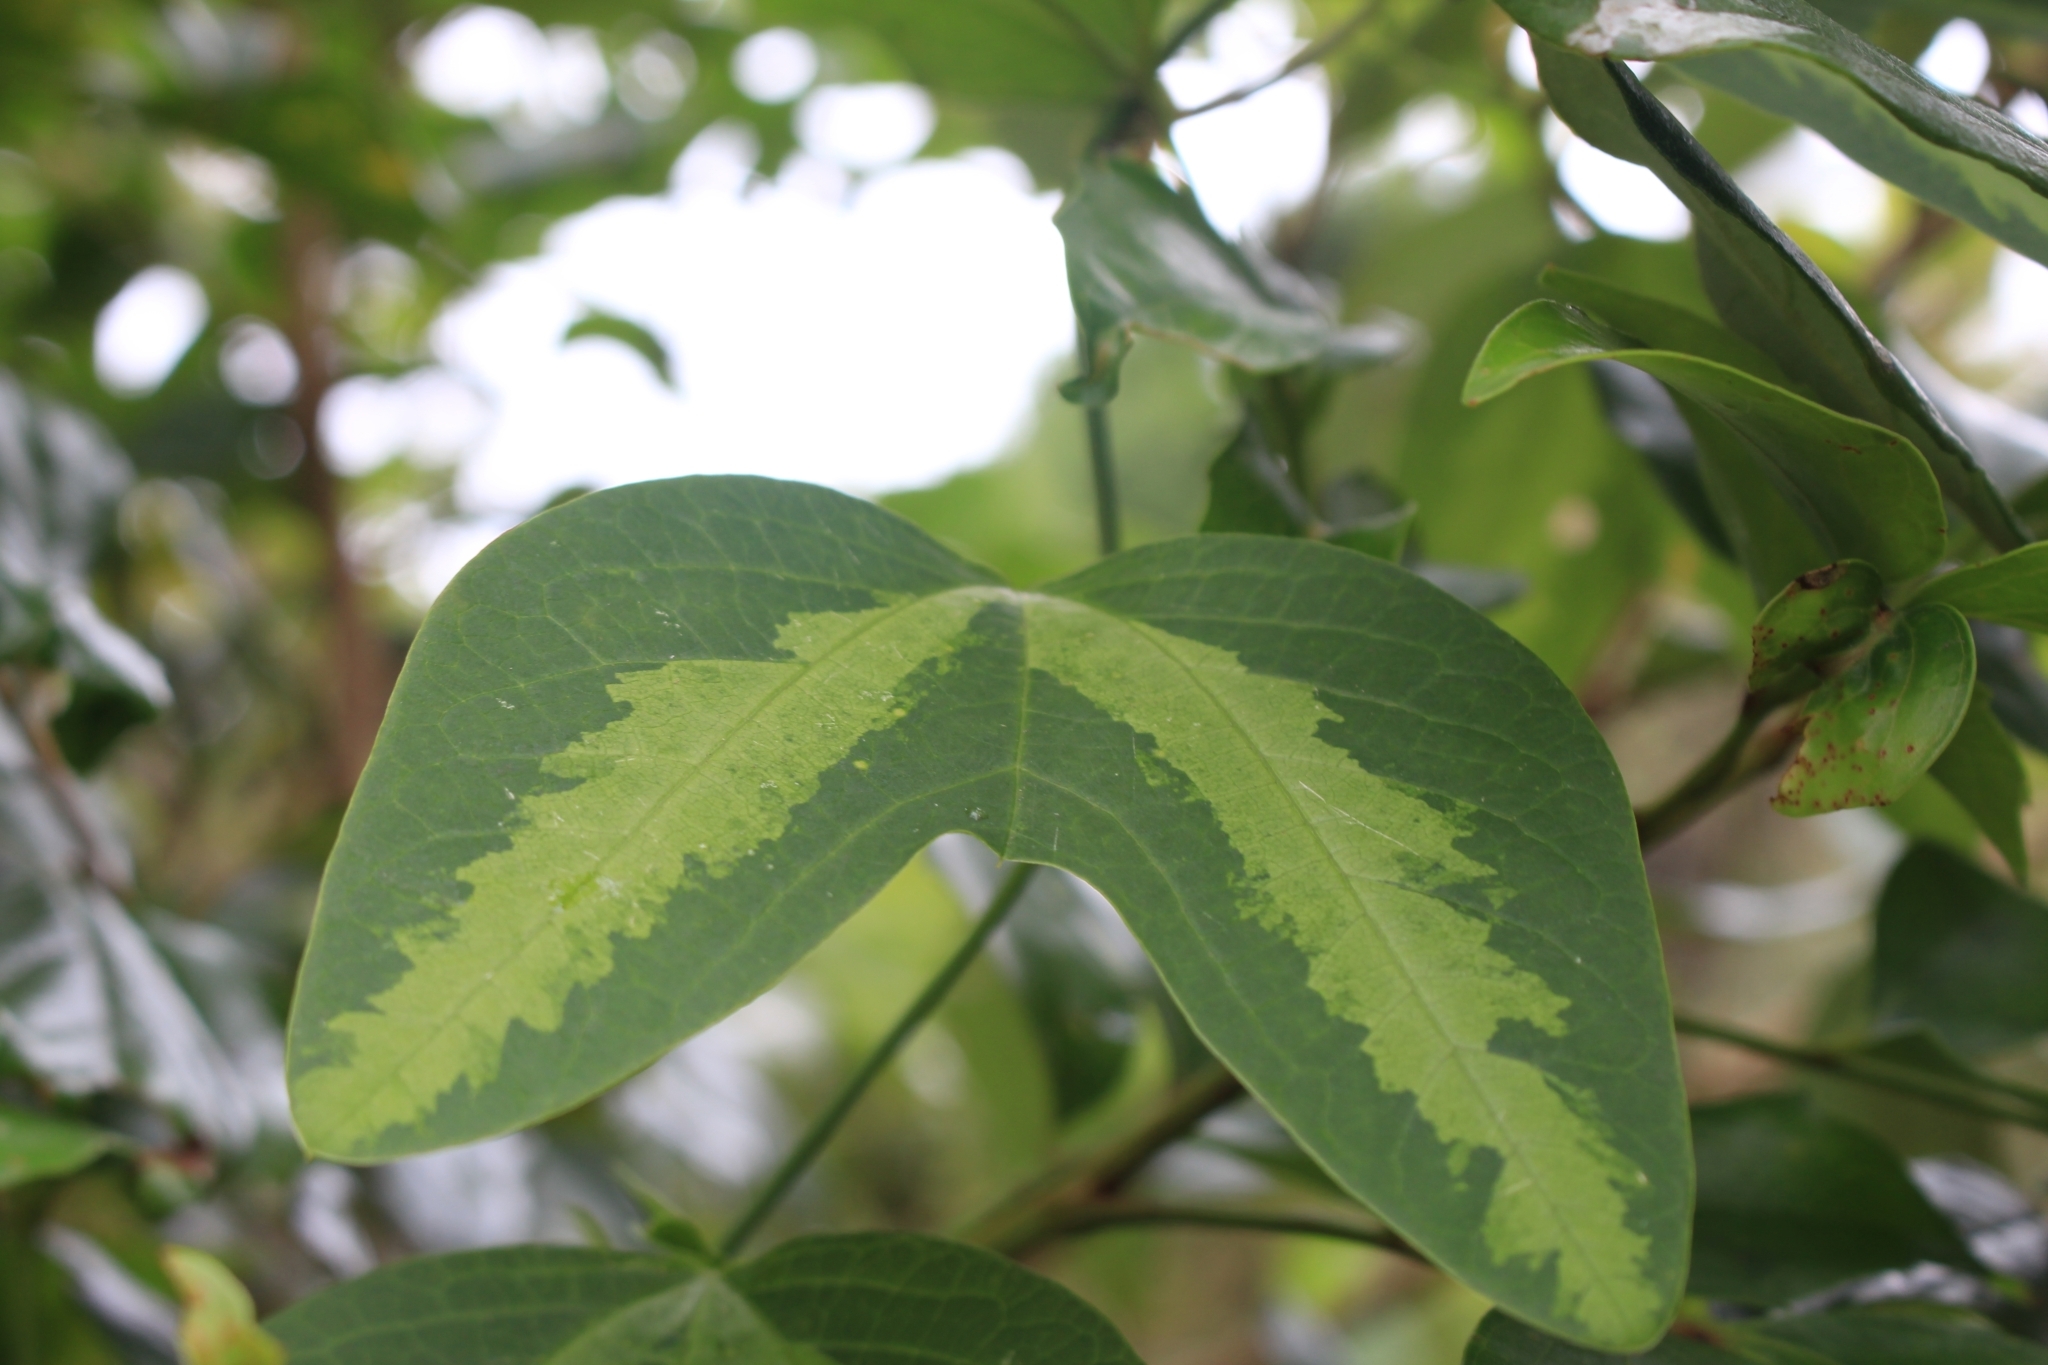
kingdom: Plantae
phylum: Tracheophyta
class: Magnoliopsida
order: Malpighiales
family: Passifloraceae
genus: Passiflora
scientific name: Passiflora apetala
